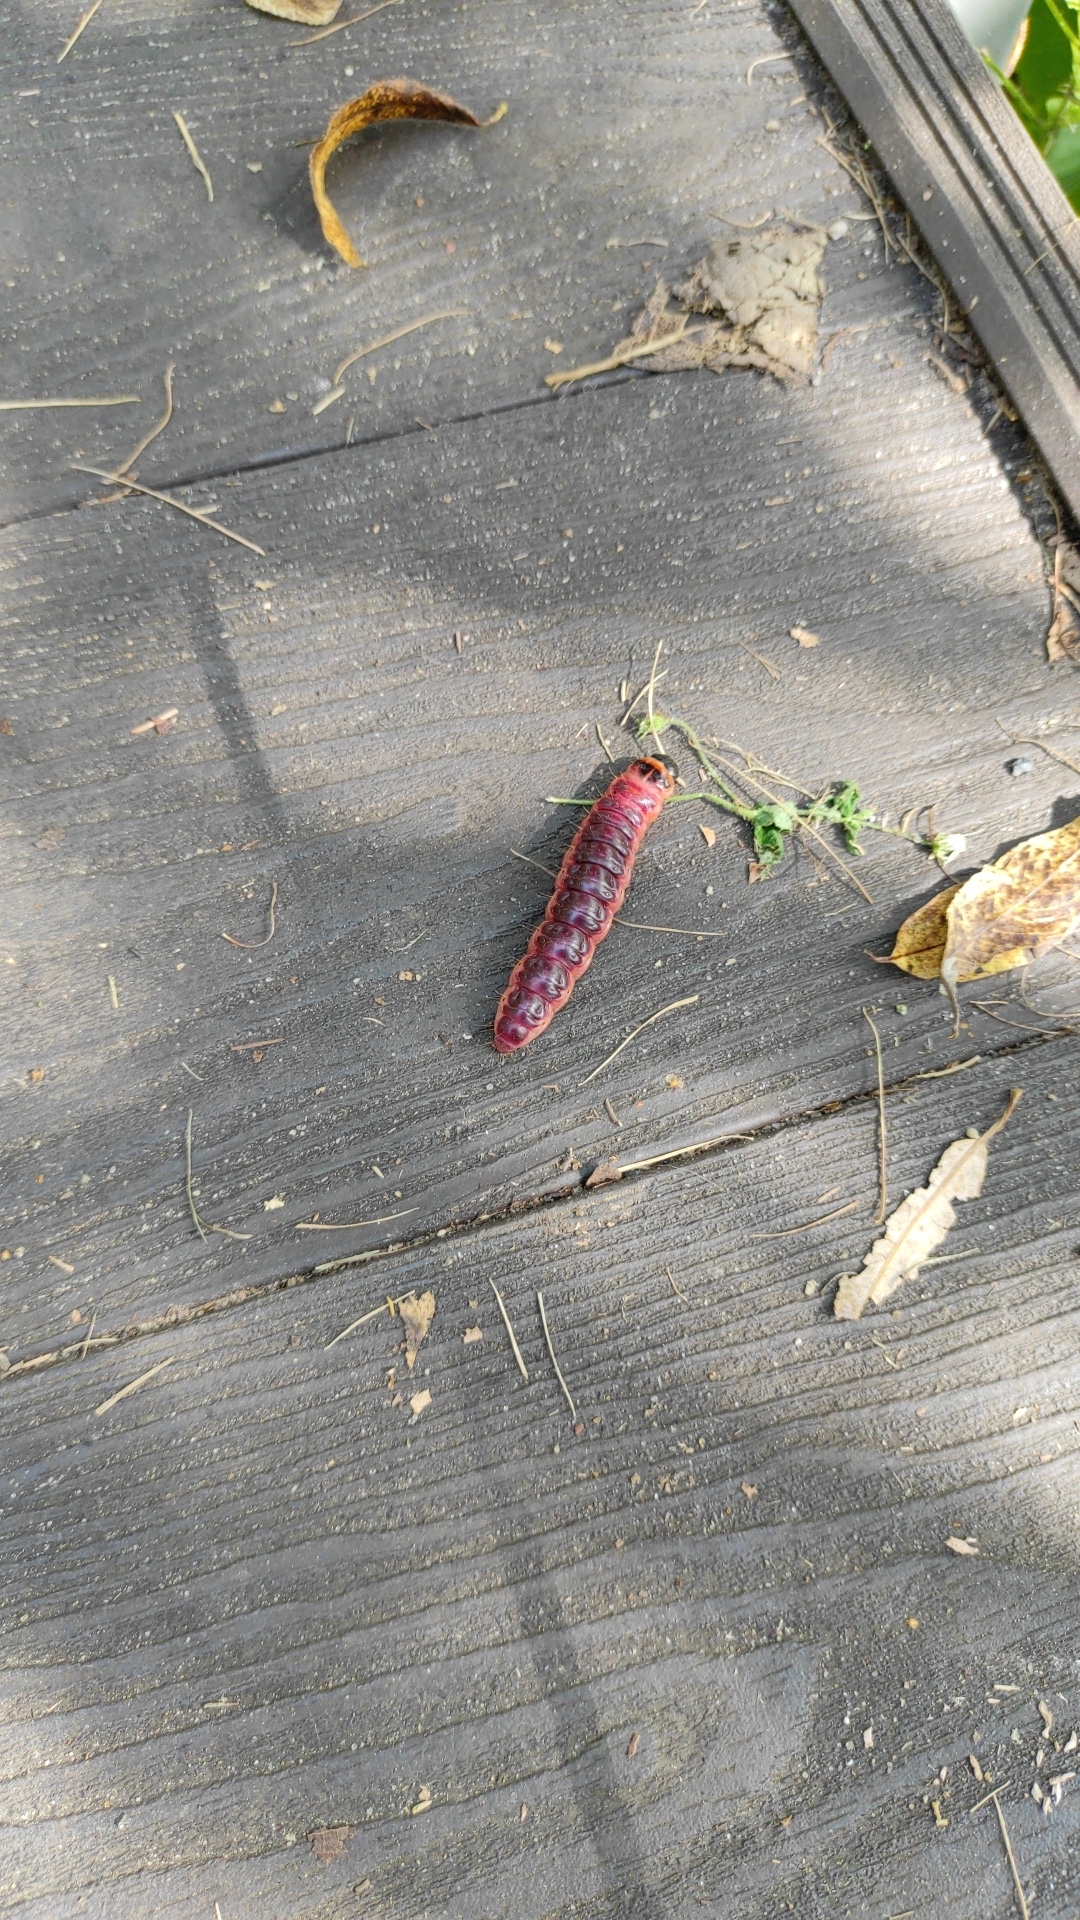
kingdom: Animalia
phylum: Arthropoda
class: Insecta
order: Lepidoptera
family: Cossidae
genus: Cossus
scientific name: Cossus cossus
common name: Goat moth
